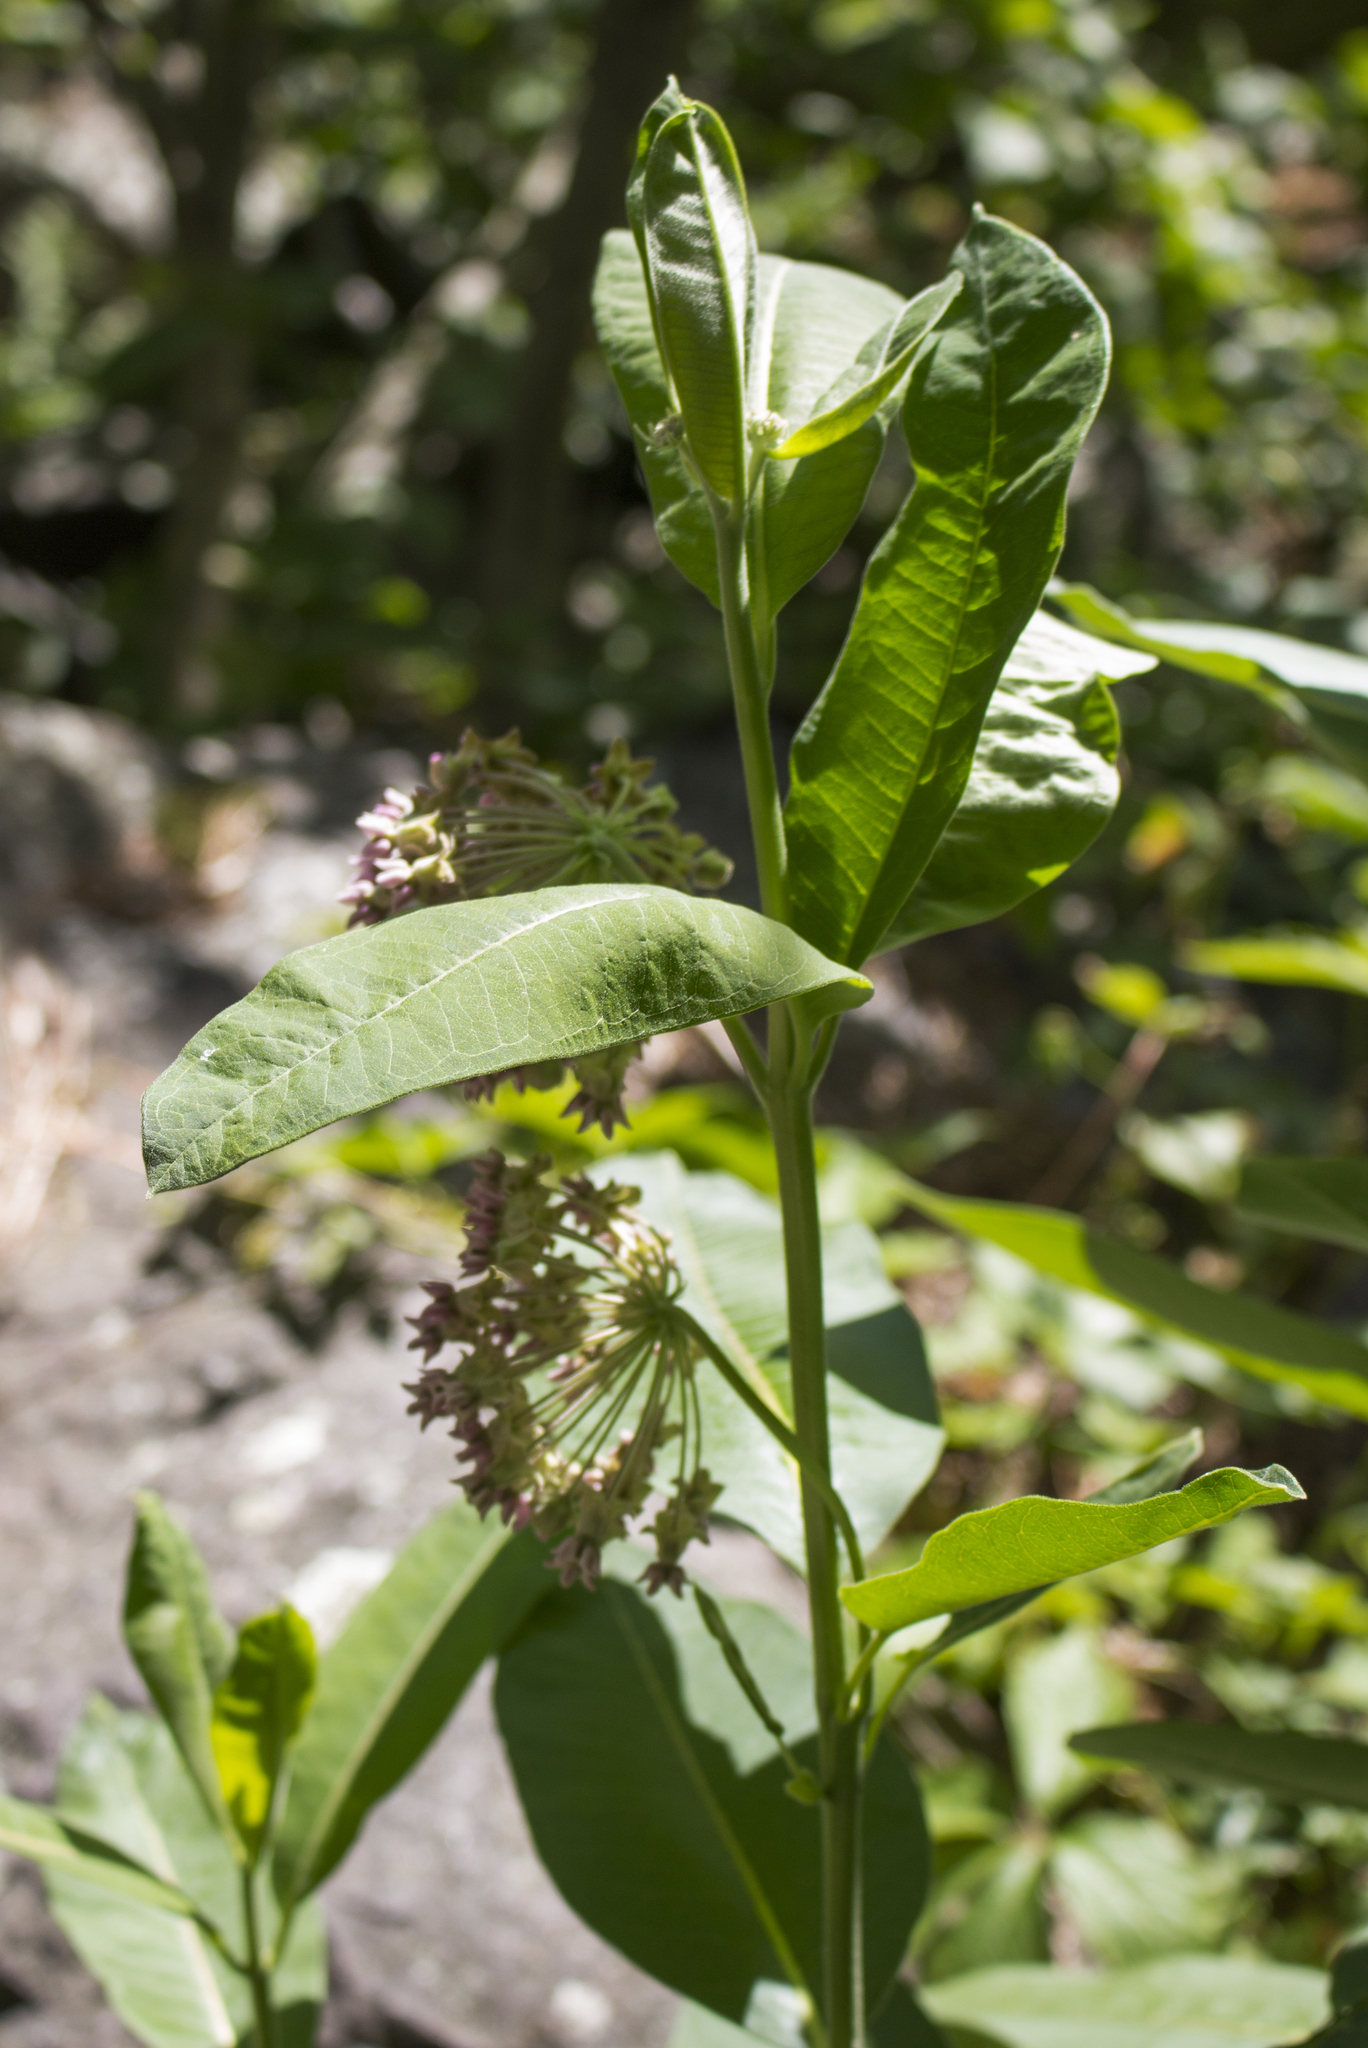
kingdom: Plantae
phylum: Tracheophyta
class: Magnoliopsida
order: Gentianales
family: Apocynaceae
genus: Asclepias
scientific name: Asclepias syriaca
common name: Common milkweed
